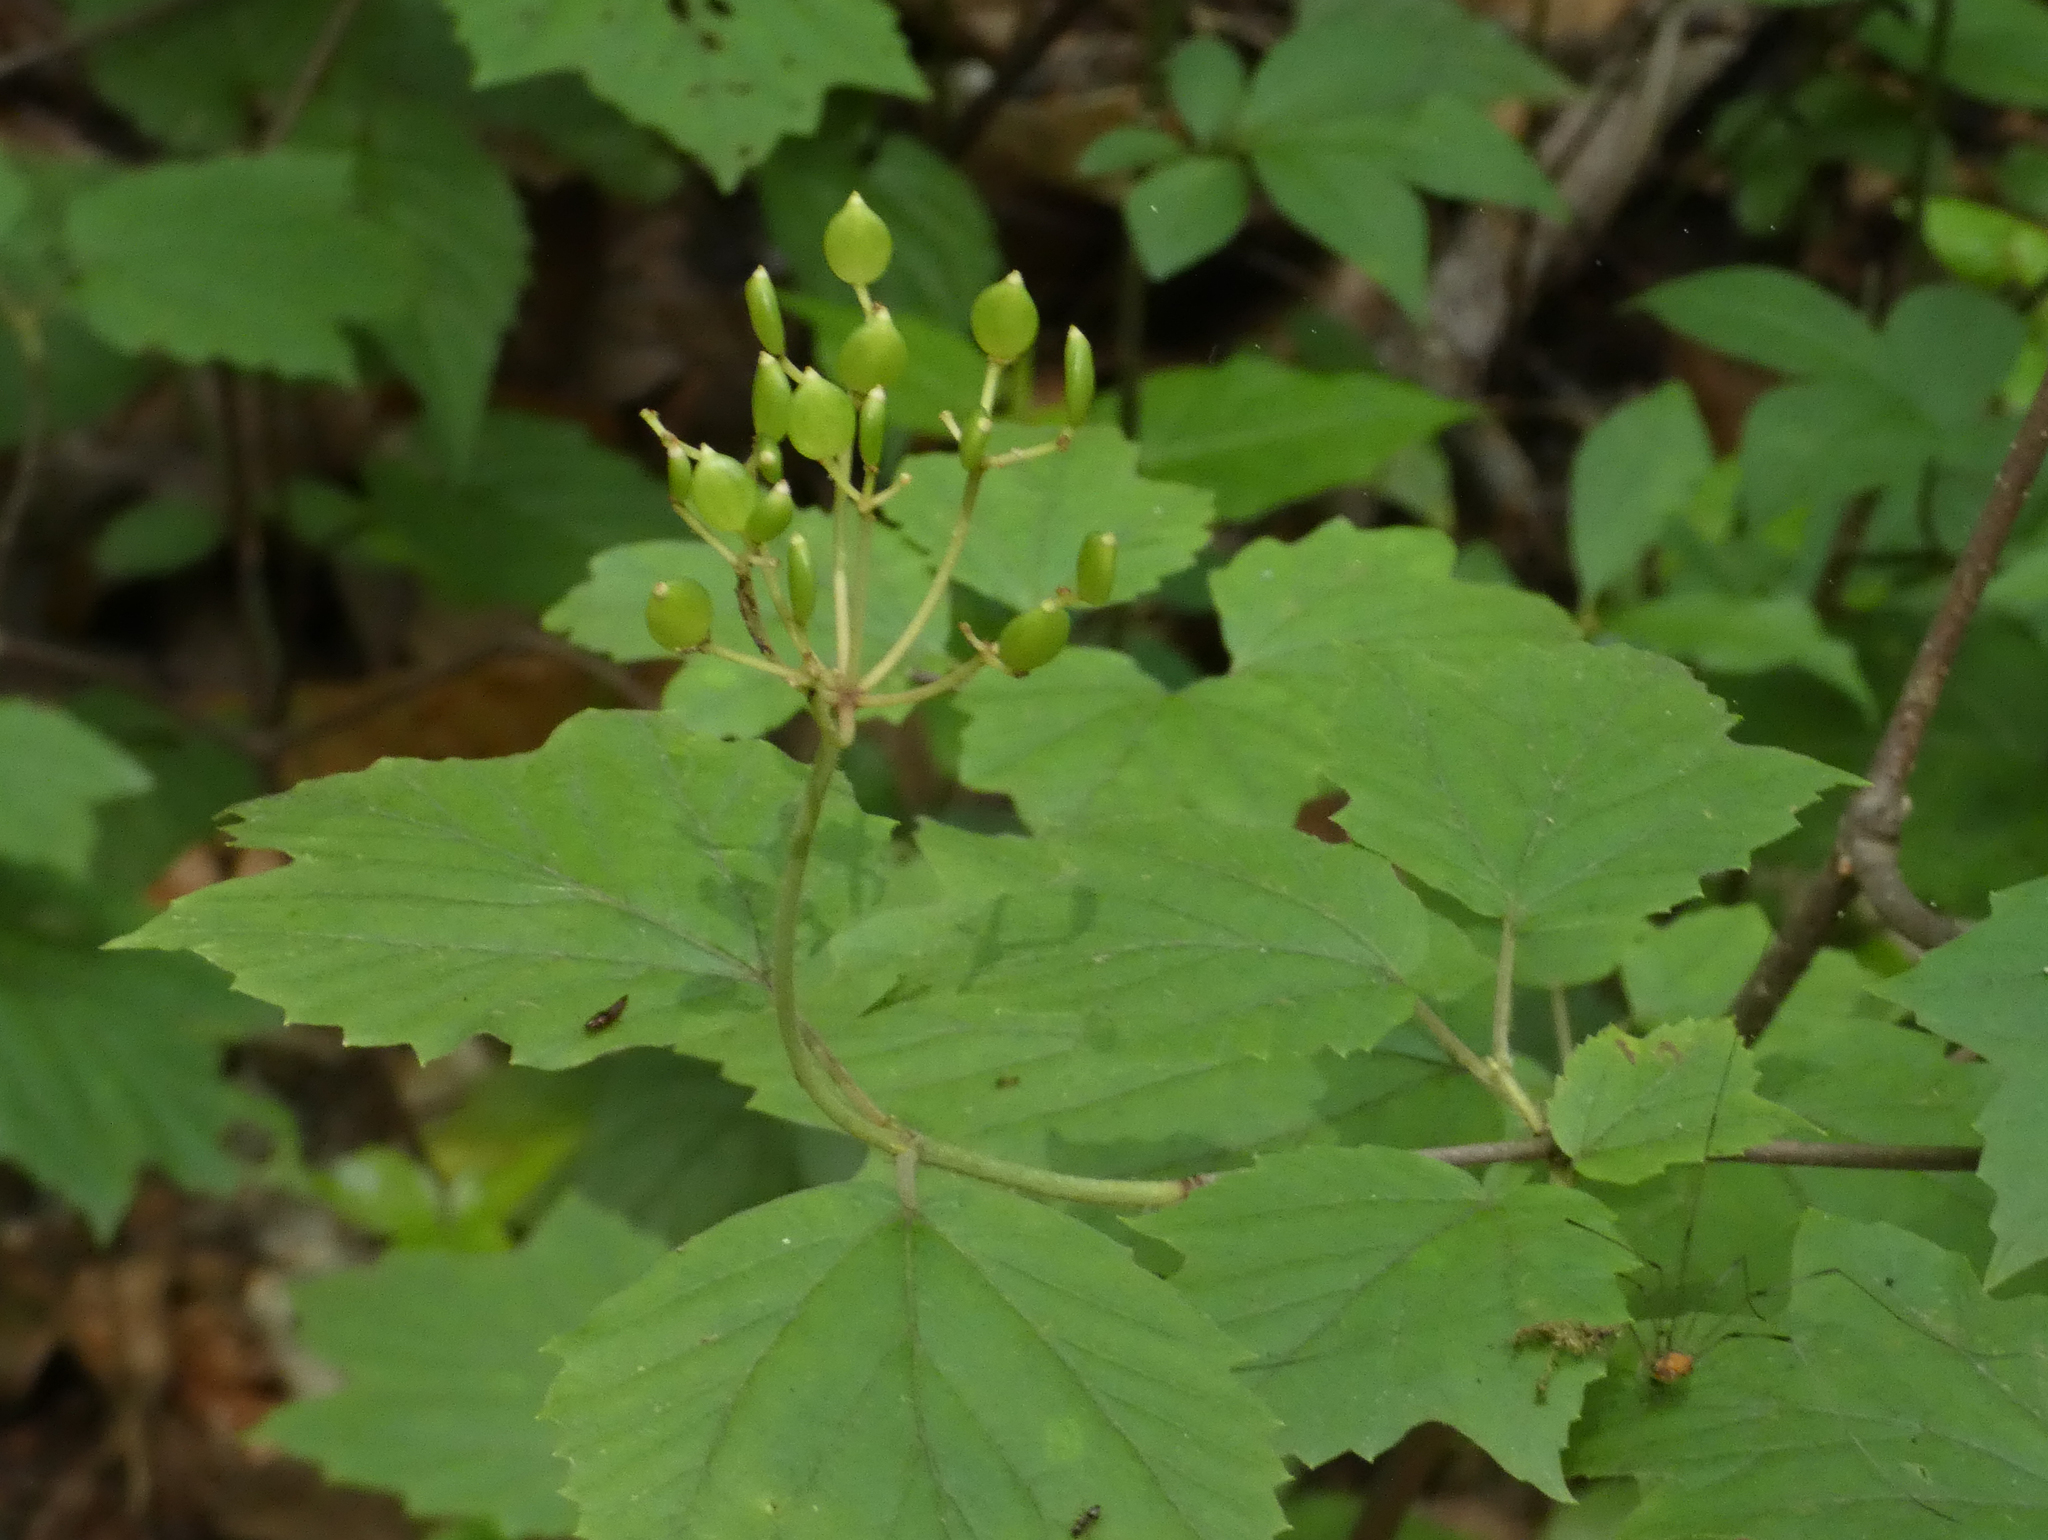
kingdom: Plantae
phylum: Tracheophyta
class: Magnoliopsida
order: Dipsacales
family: Viburnaceae
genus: Viburnum
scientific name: Viburnum acerifolium
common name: Dockmackie
